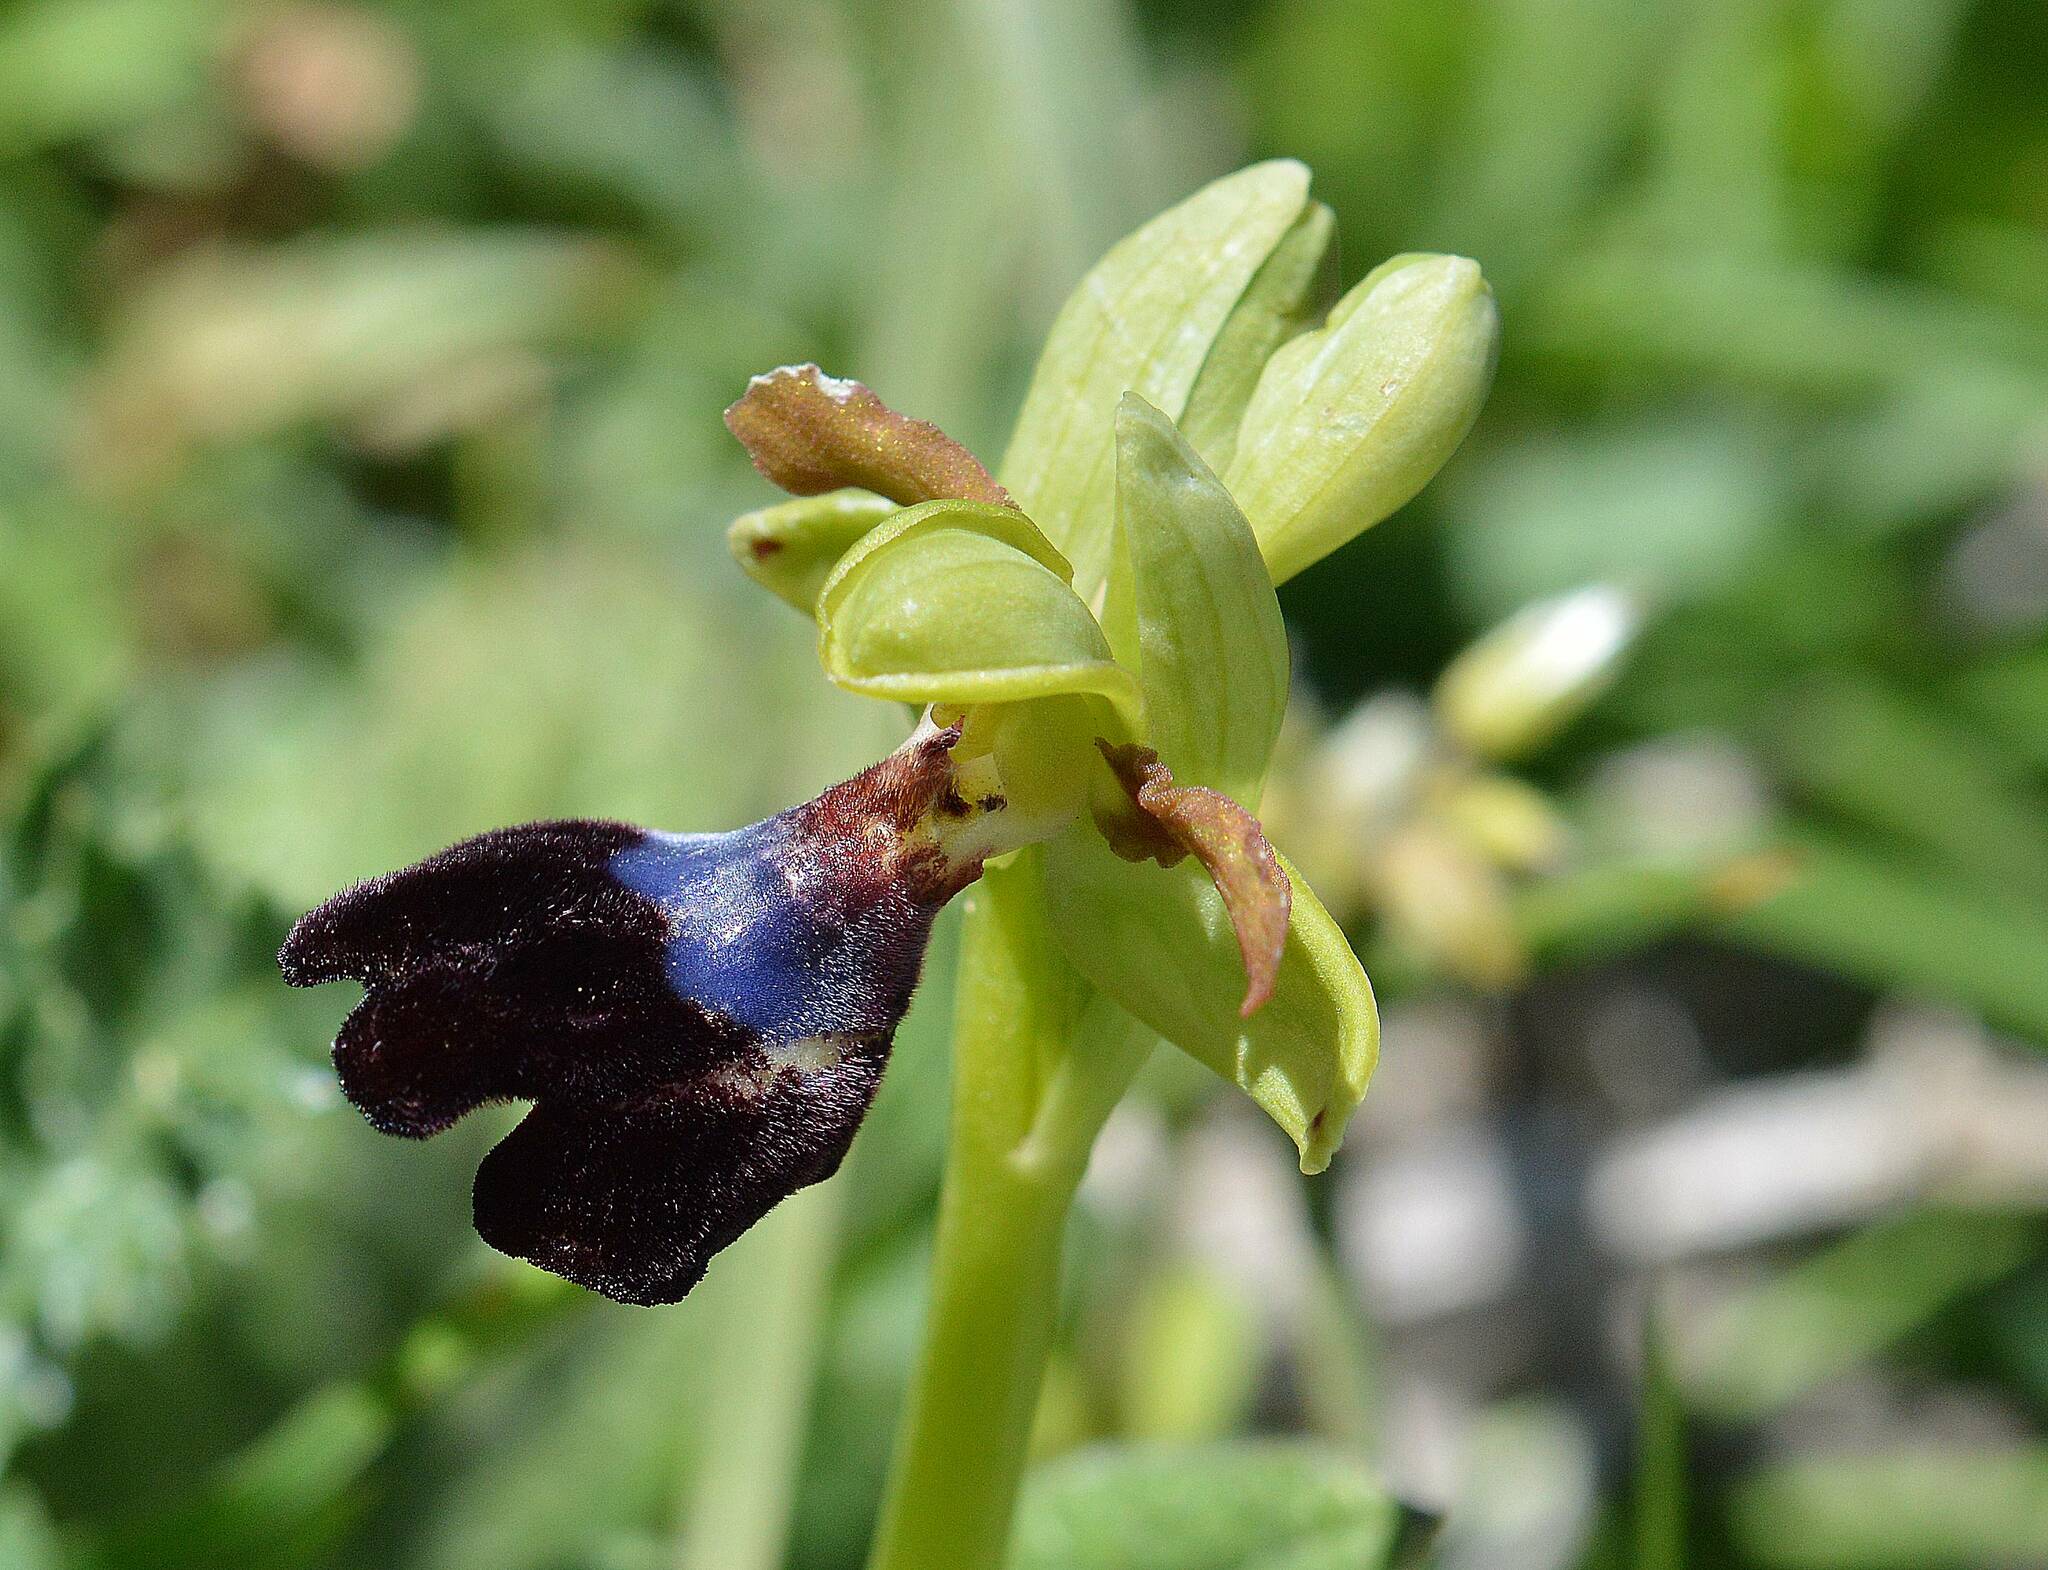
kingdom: Plantae
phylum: Tracheophyta
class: Liliopsida
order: Asparagales
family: Orchidaceae
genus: Ophrys
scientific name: Ophrys atlantica
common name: Atlantic ophrys
